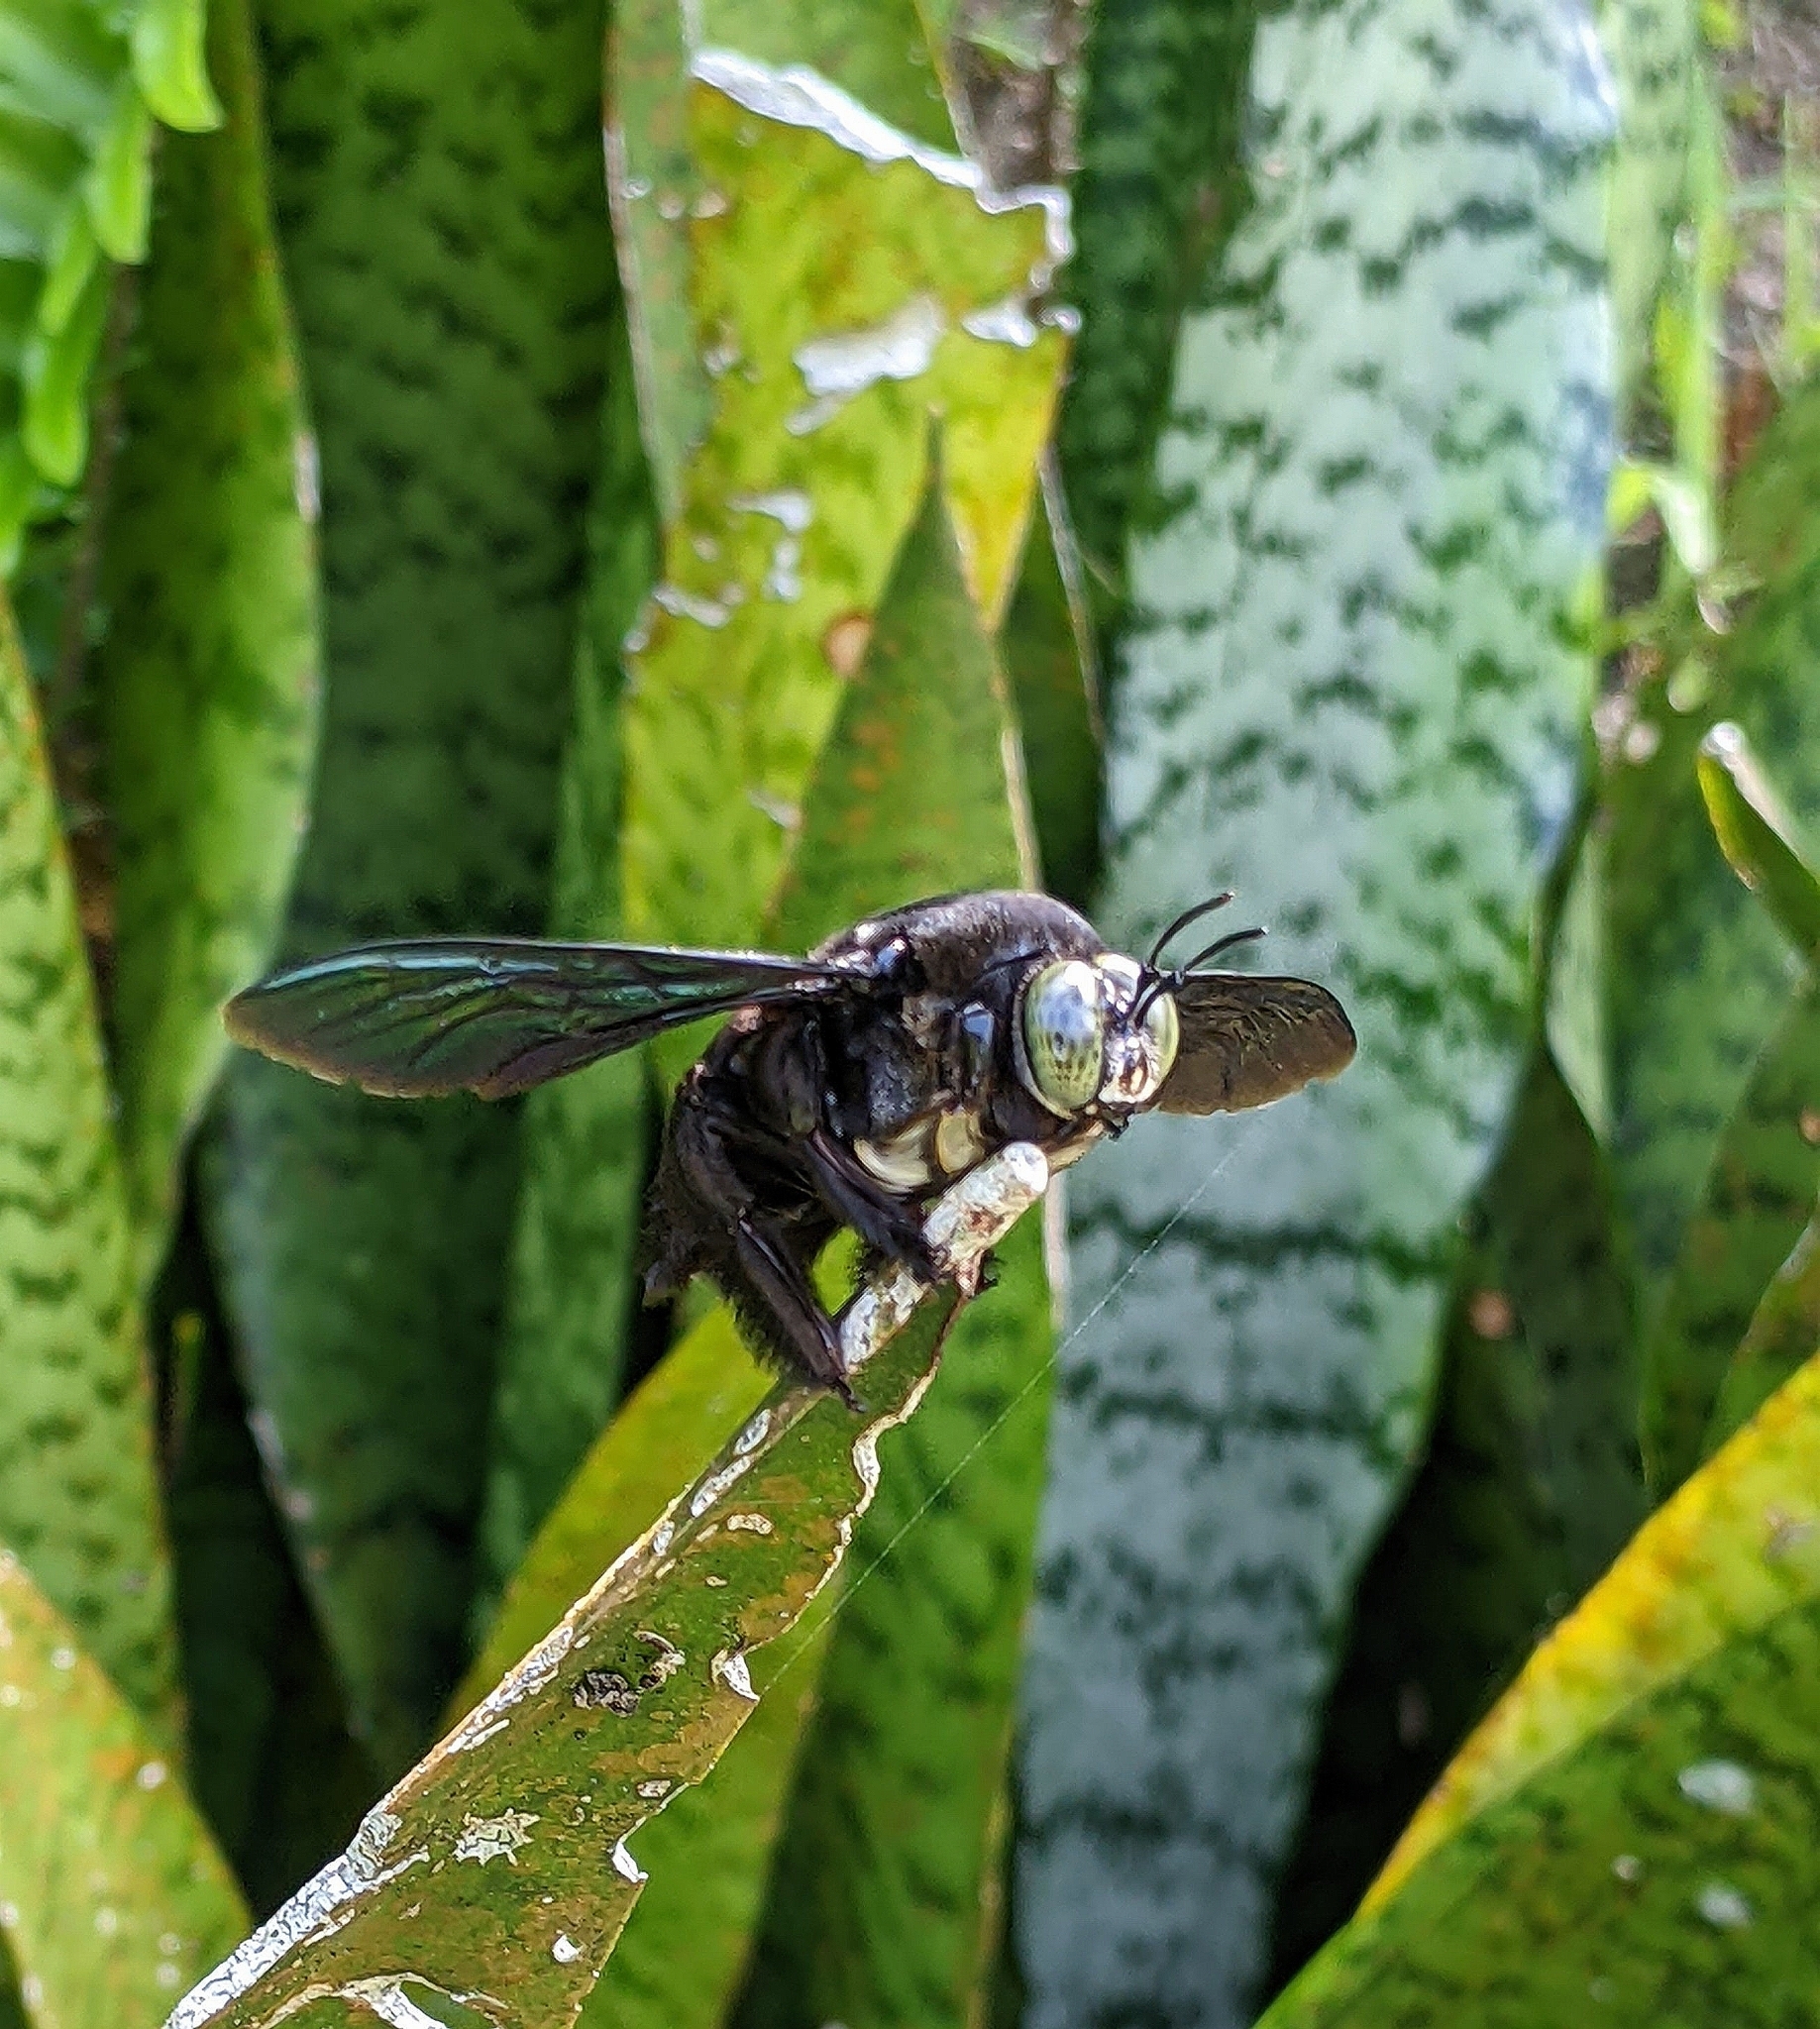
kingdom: Animalia
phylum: Arthropoda
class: Insecta
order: Hymenoptera
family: Apidae
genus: Xylocopa
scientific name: Xylocopa latipes
